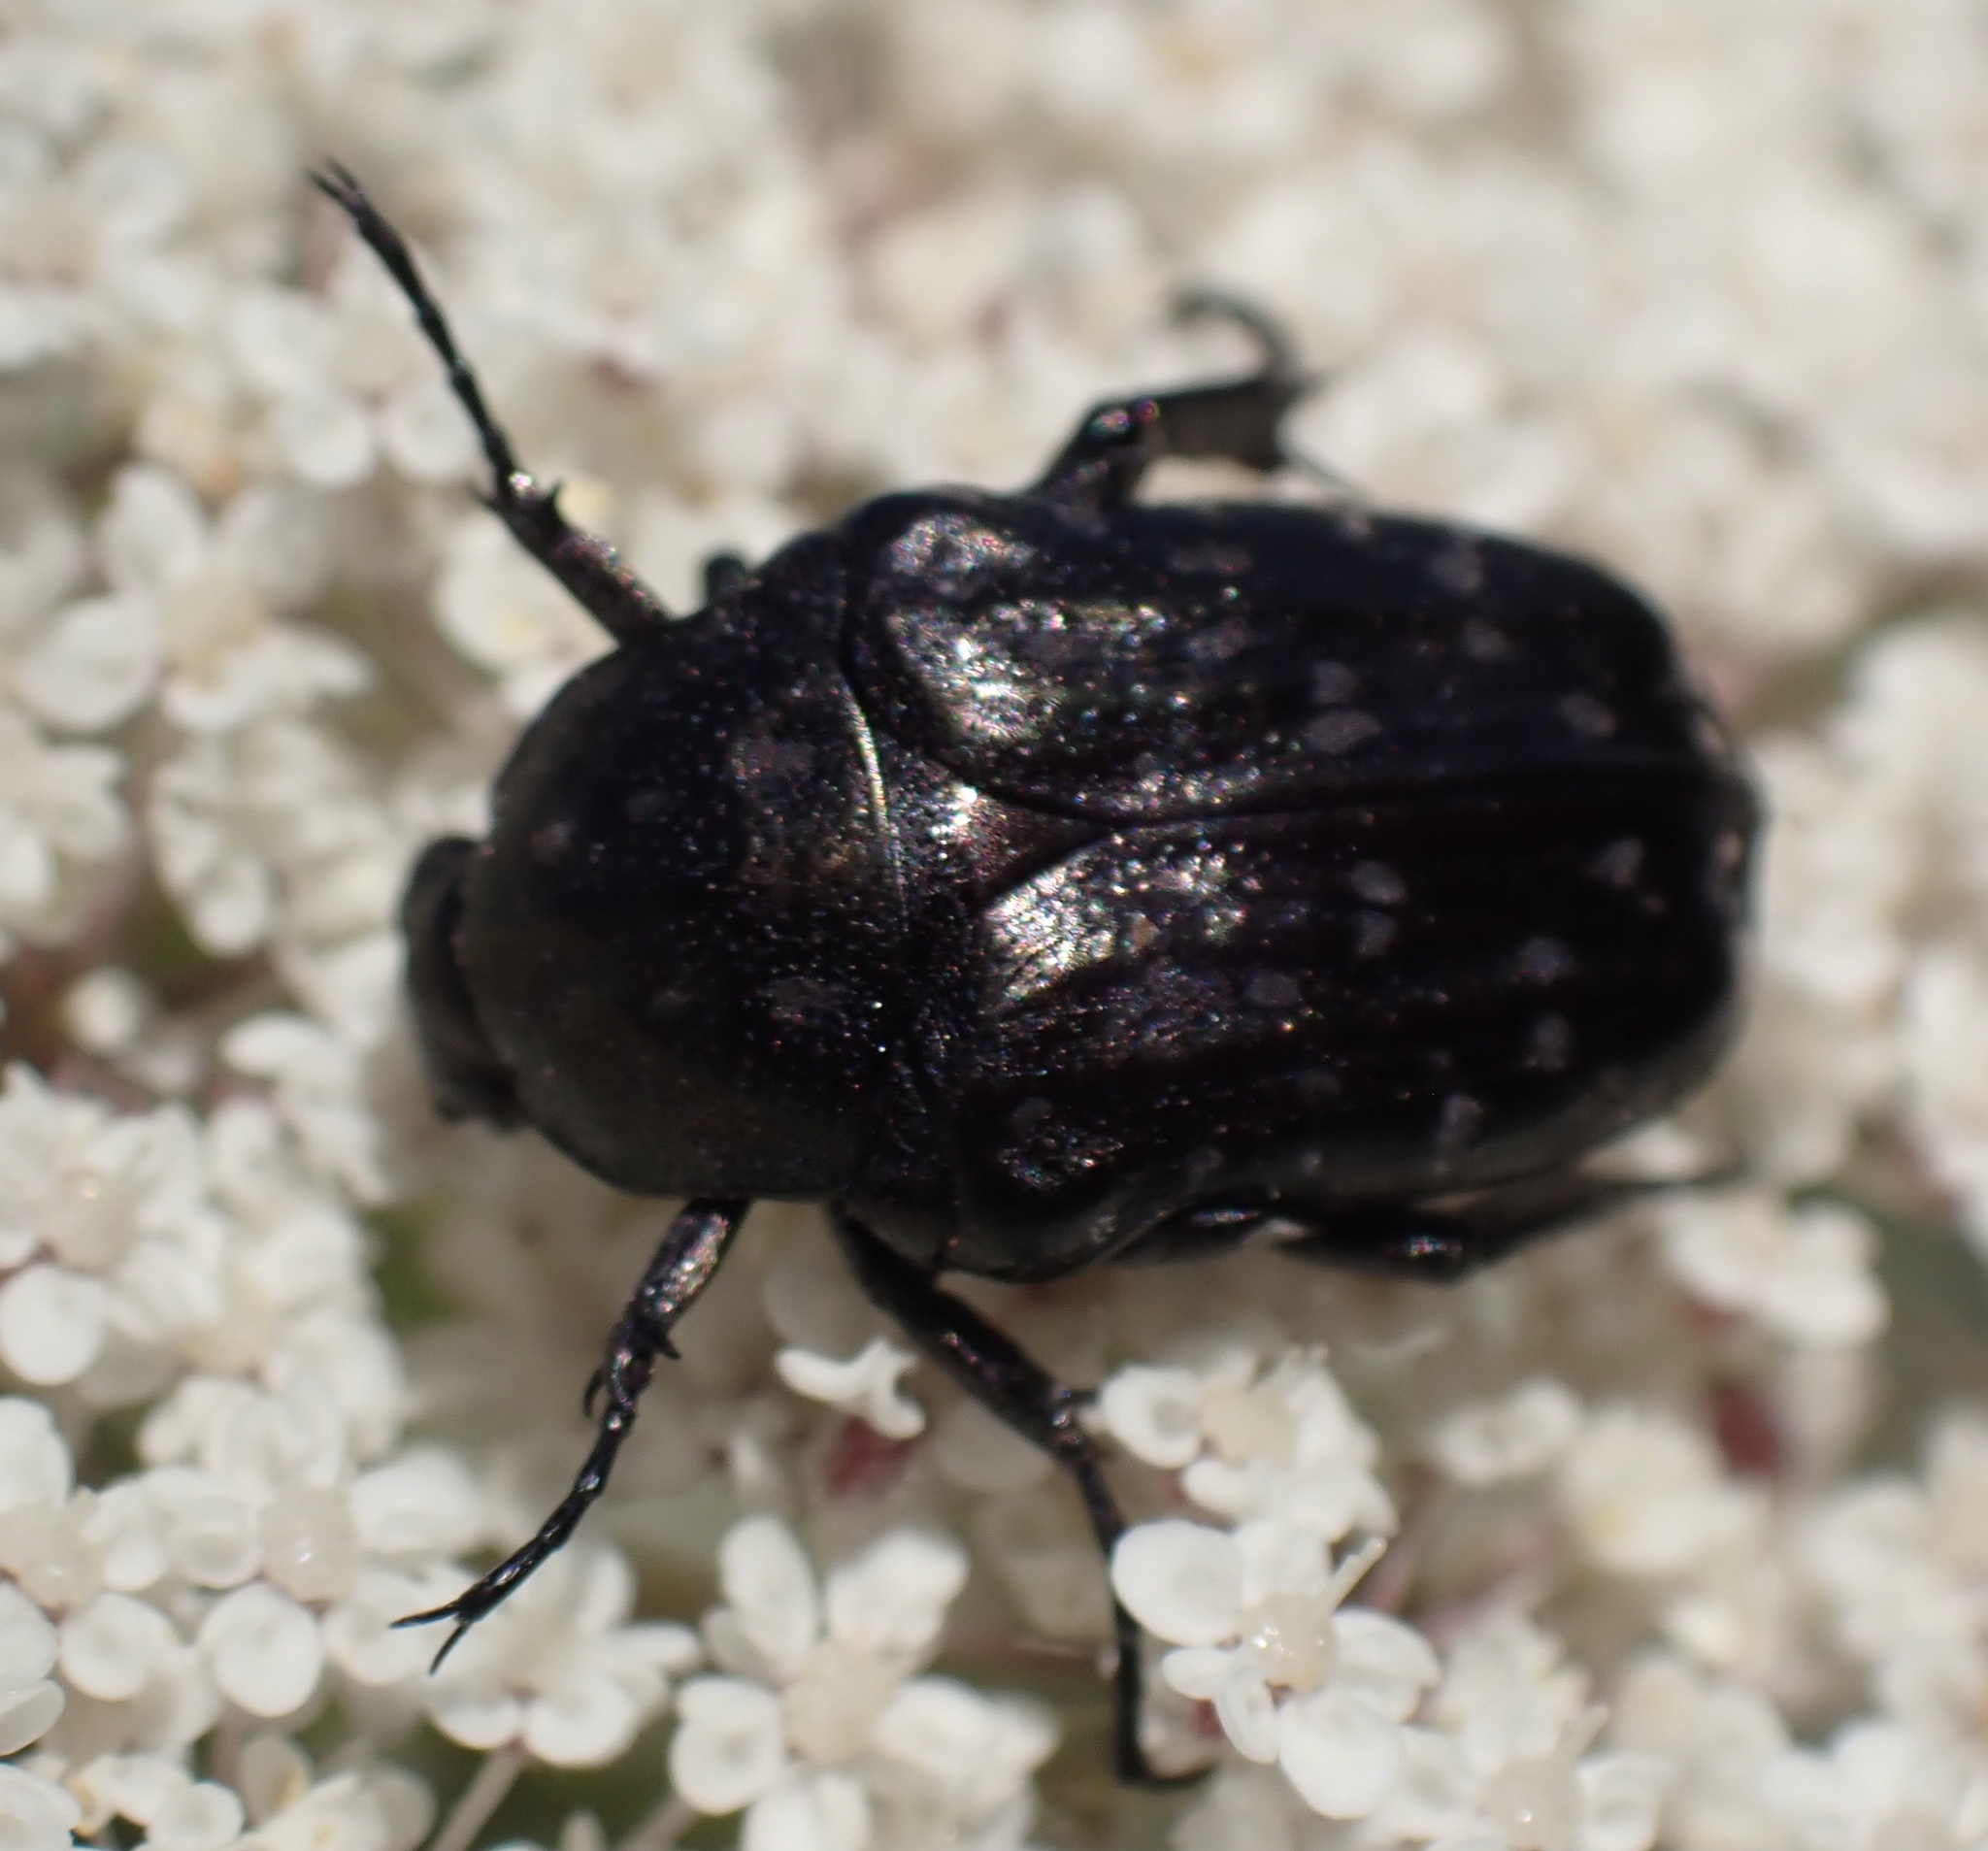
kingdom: Animalia
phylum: Arthropoda
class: Insecta
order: Coleoptera
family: Scarabaeidae
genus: Oxythyrea
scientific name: Oxythyrea funesta
